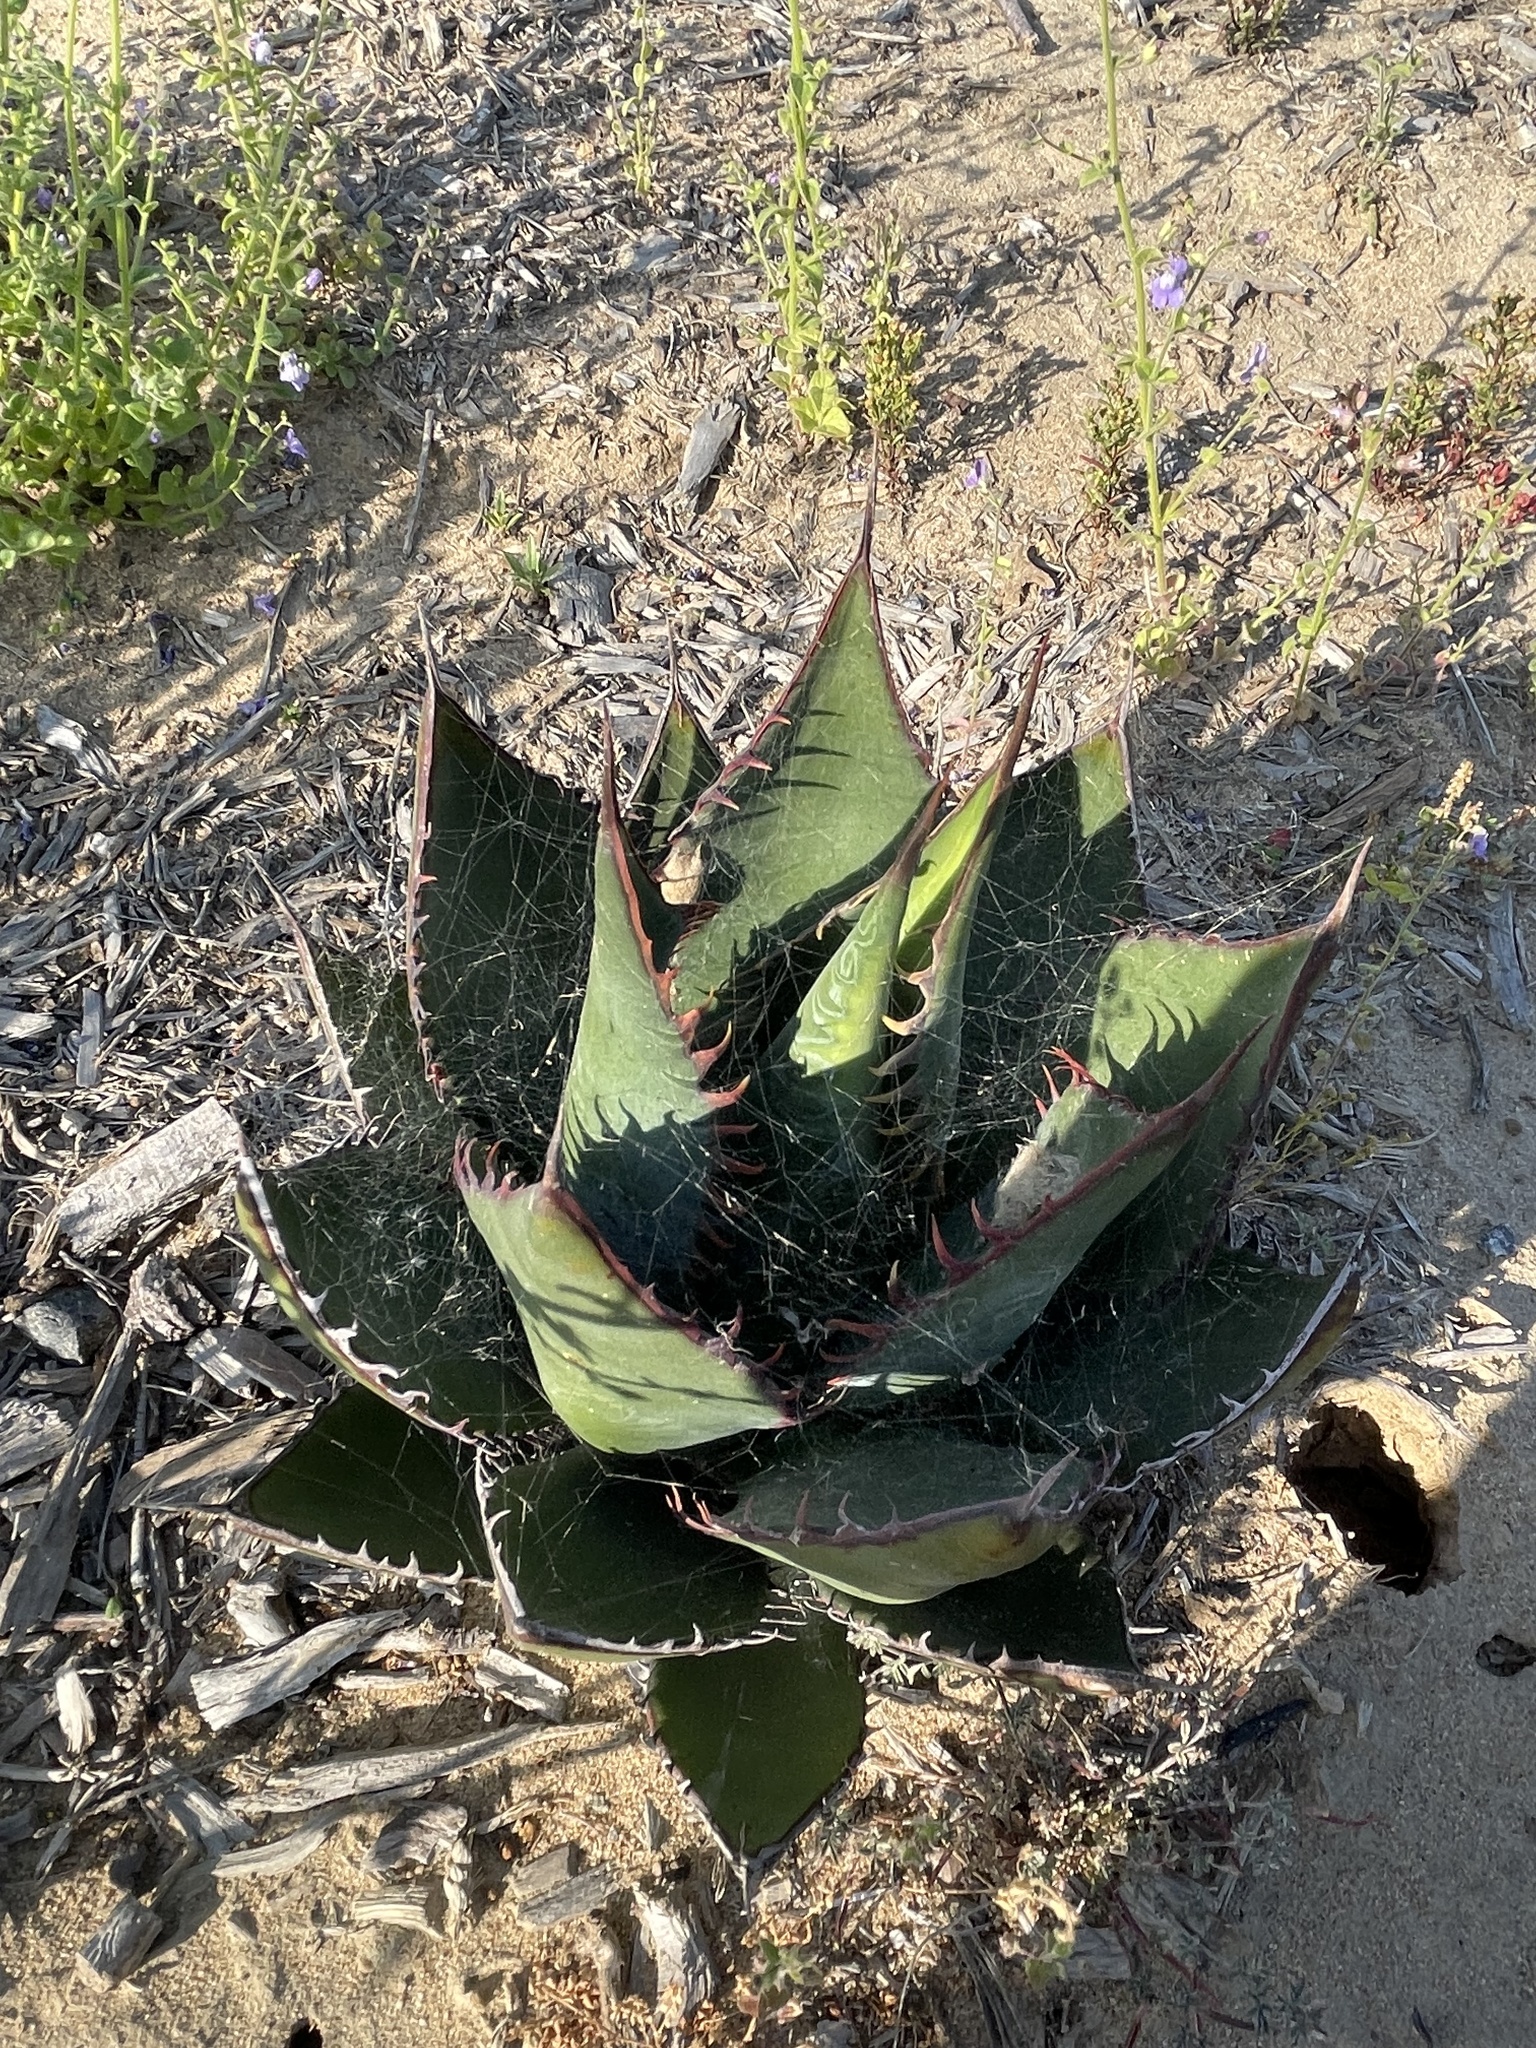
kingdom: Plantae
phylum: Tracheophyta
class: Liliopsida
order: Asparagales
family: Asparagaceae
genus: Agave
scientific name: Agave shawii
